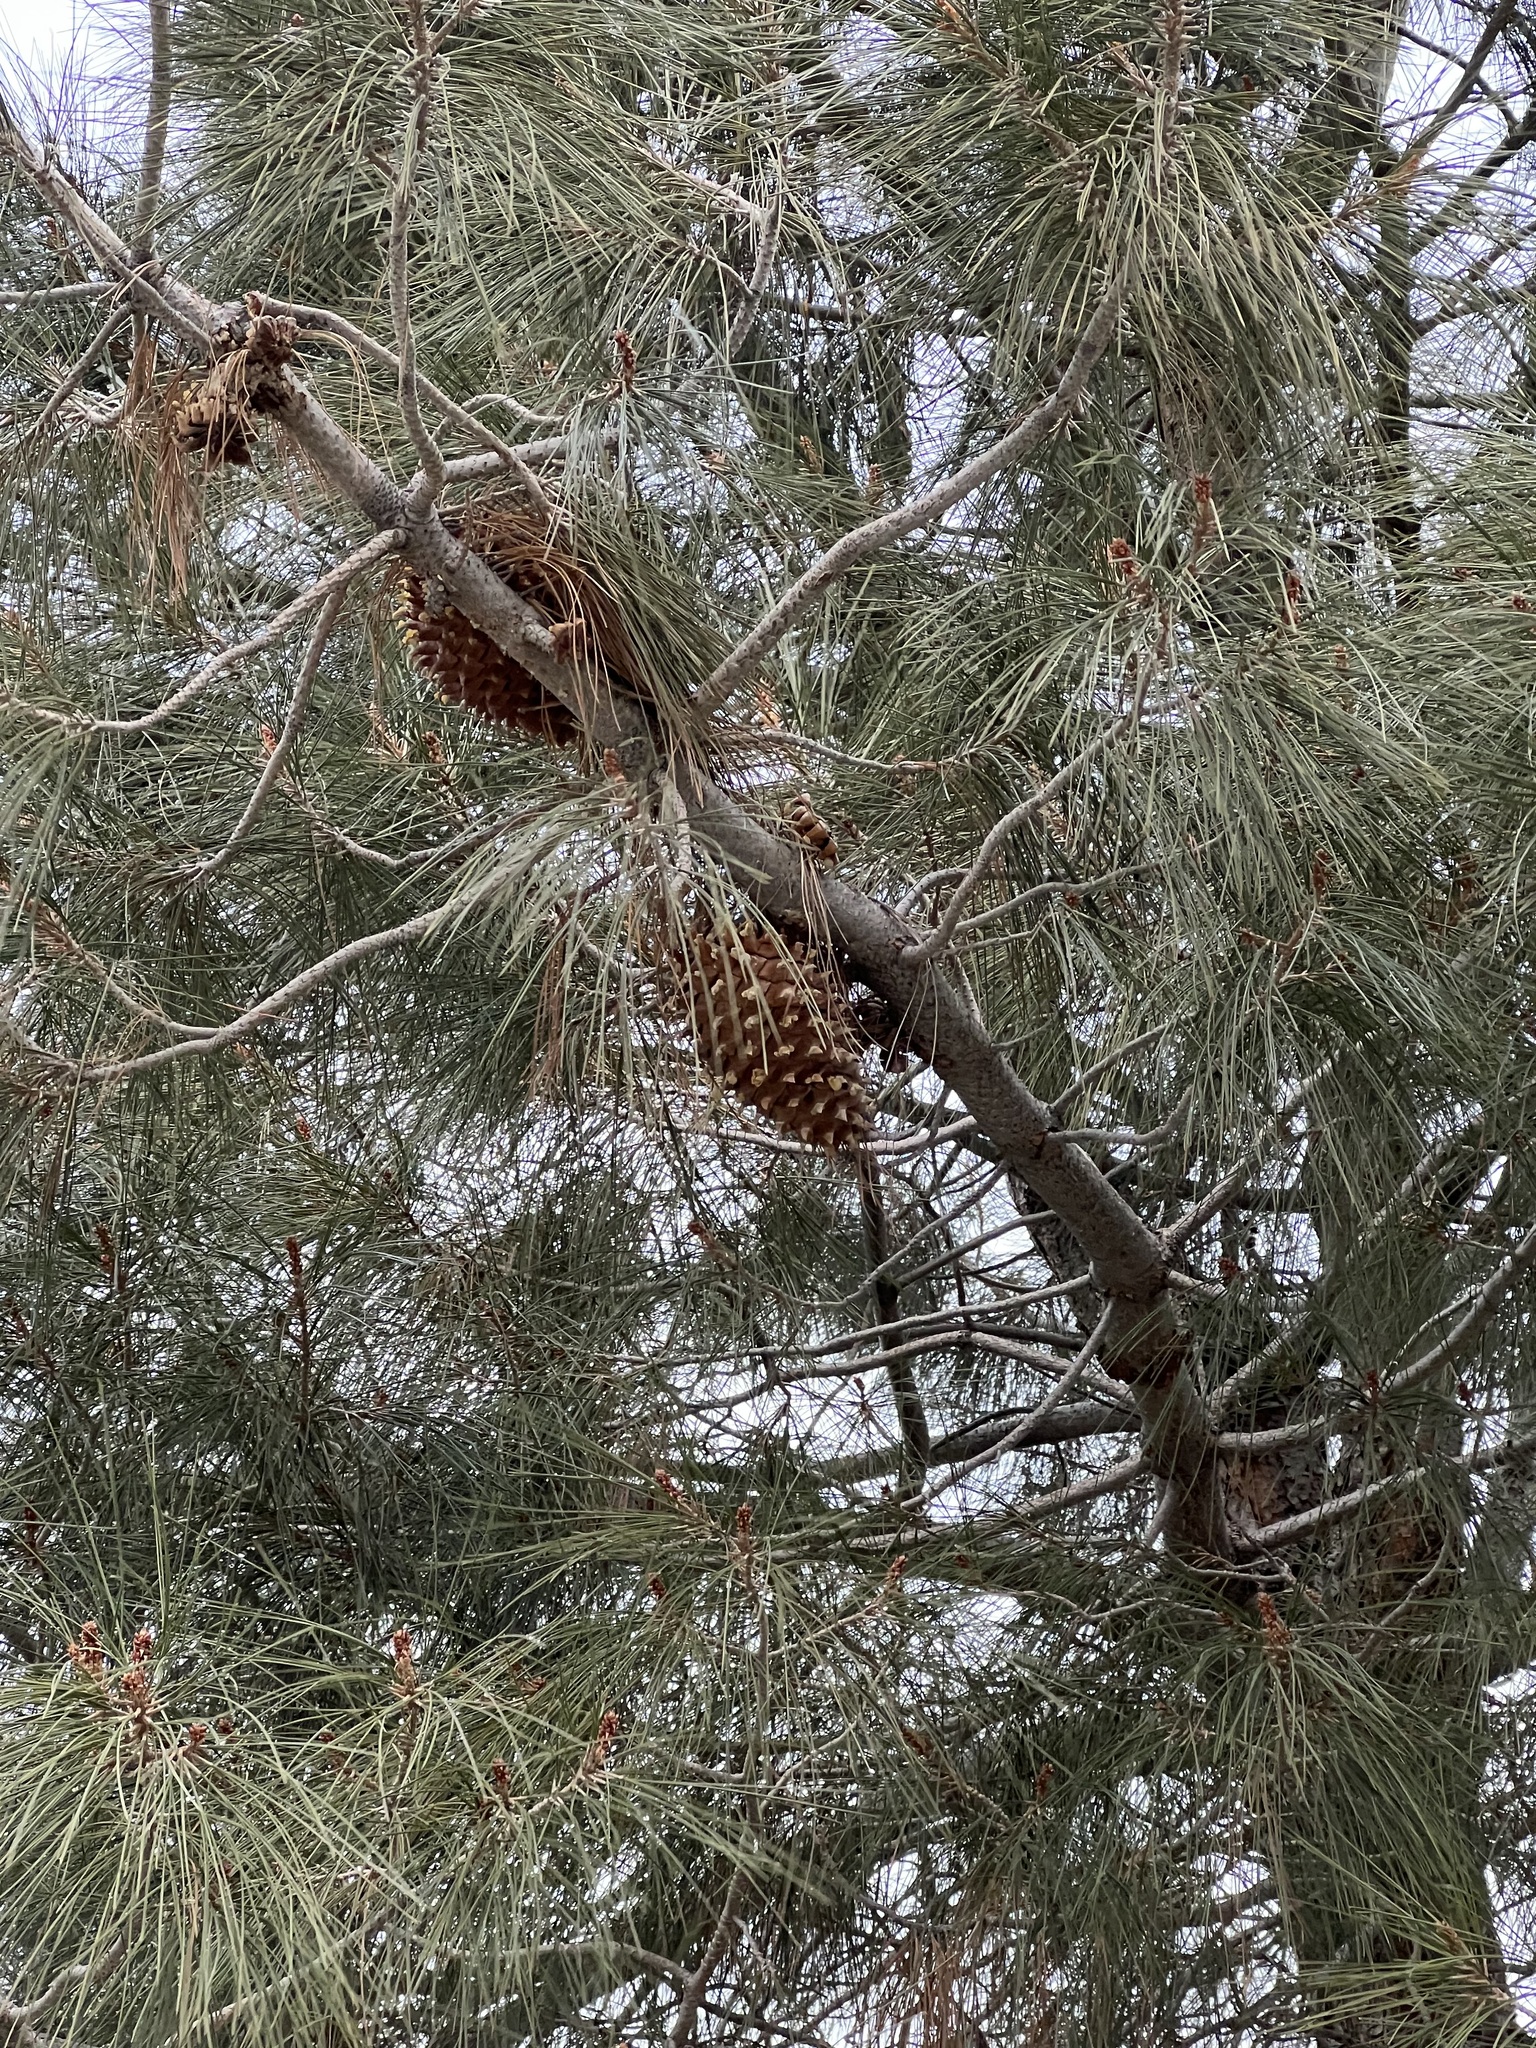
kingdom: Plantae
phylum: Tracheophyta
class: Pinopsida
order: Pinales
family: Pinaceae
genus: Pinus
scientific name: Pinus sabiniana
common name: Bull pine
